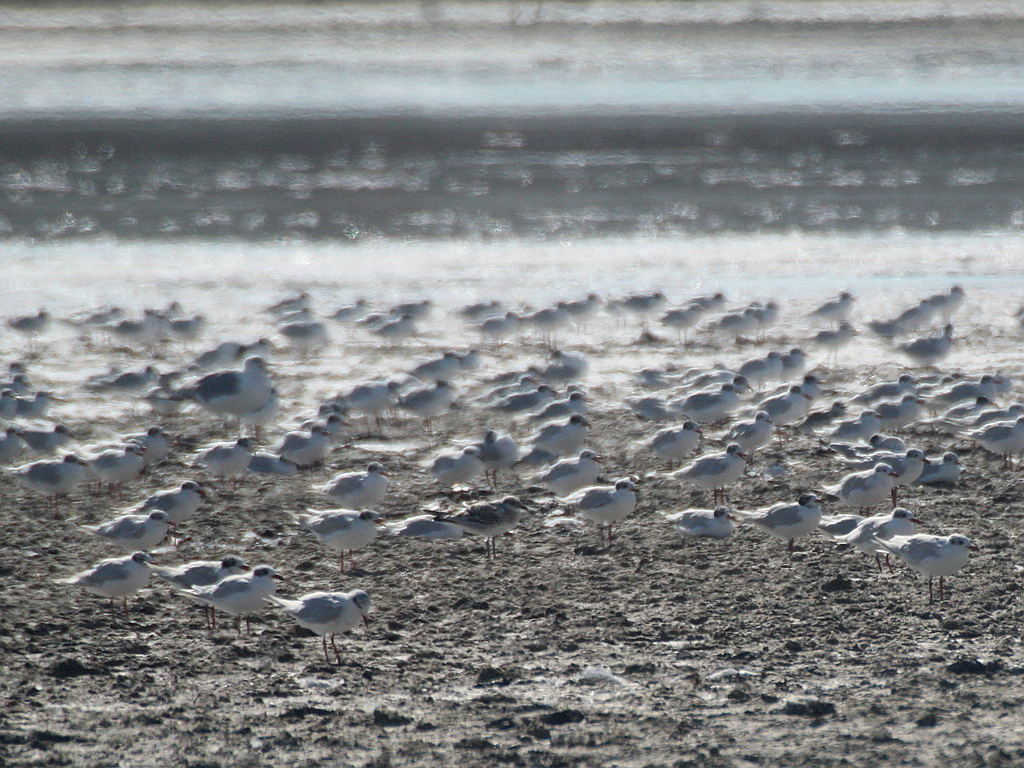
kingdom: Animalia
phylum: Chordata
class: Aves
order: Charadriiformes
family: Laridae
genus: Ichthyaetus
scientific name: Ichthyaetus melanocephalus
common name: Mediterranean gull
